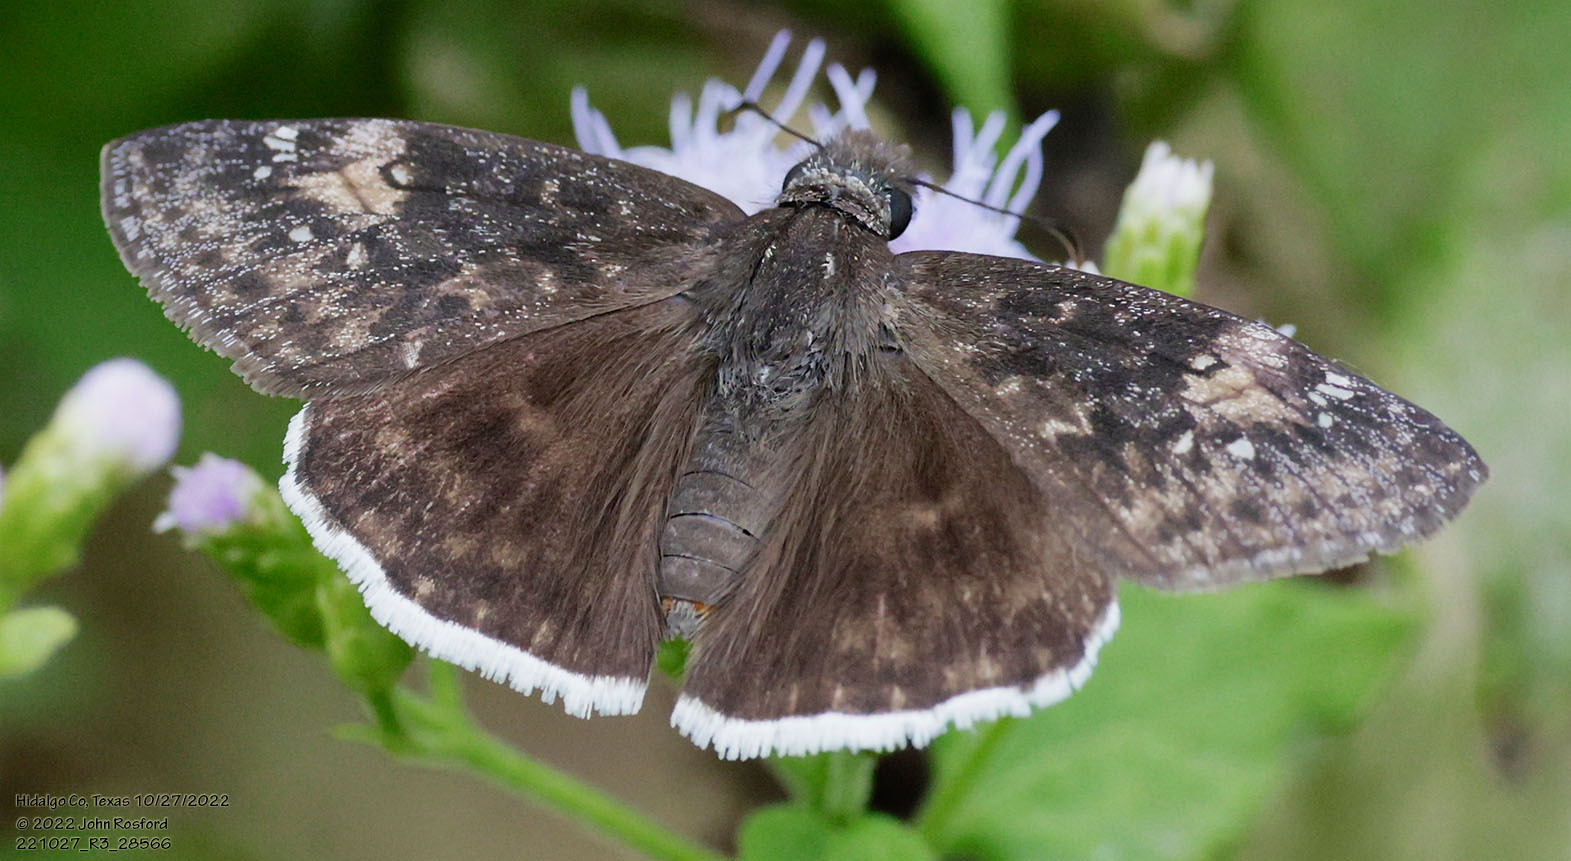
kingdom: Animalia
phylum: Arthropoda
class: Insecta
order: Lepidoptera
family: Hesperiidae
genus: Erynnis
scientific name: Erynnis funeralis
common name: Funereal duskywing
